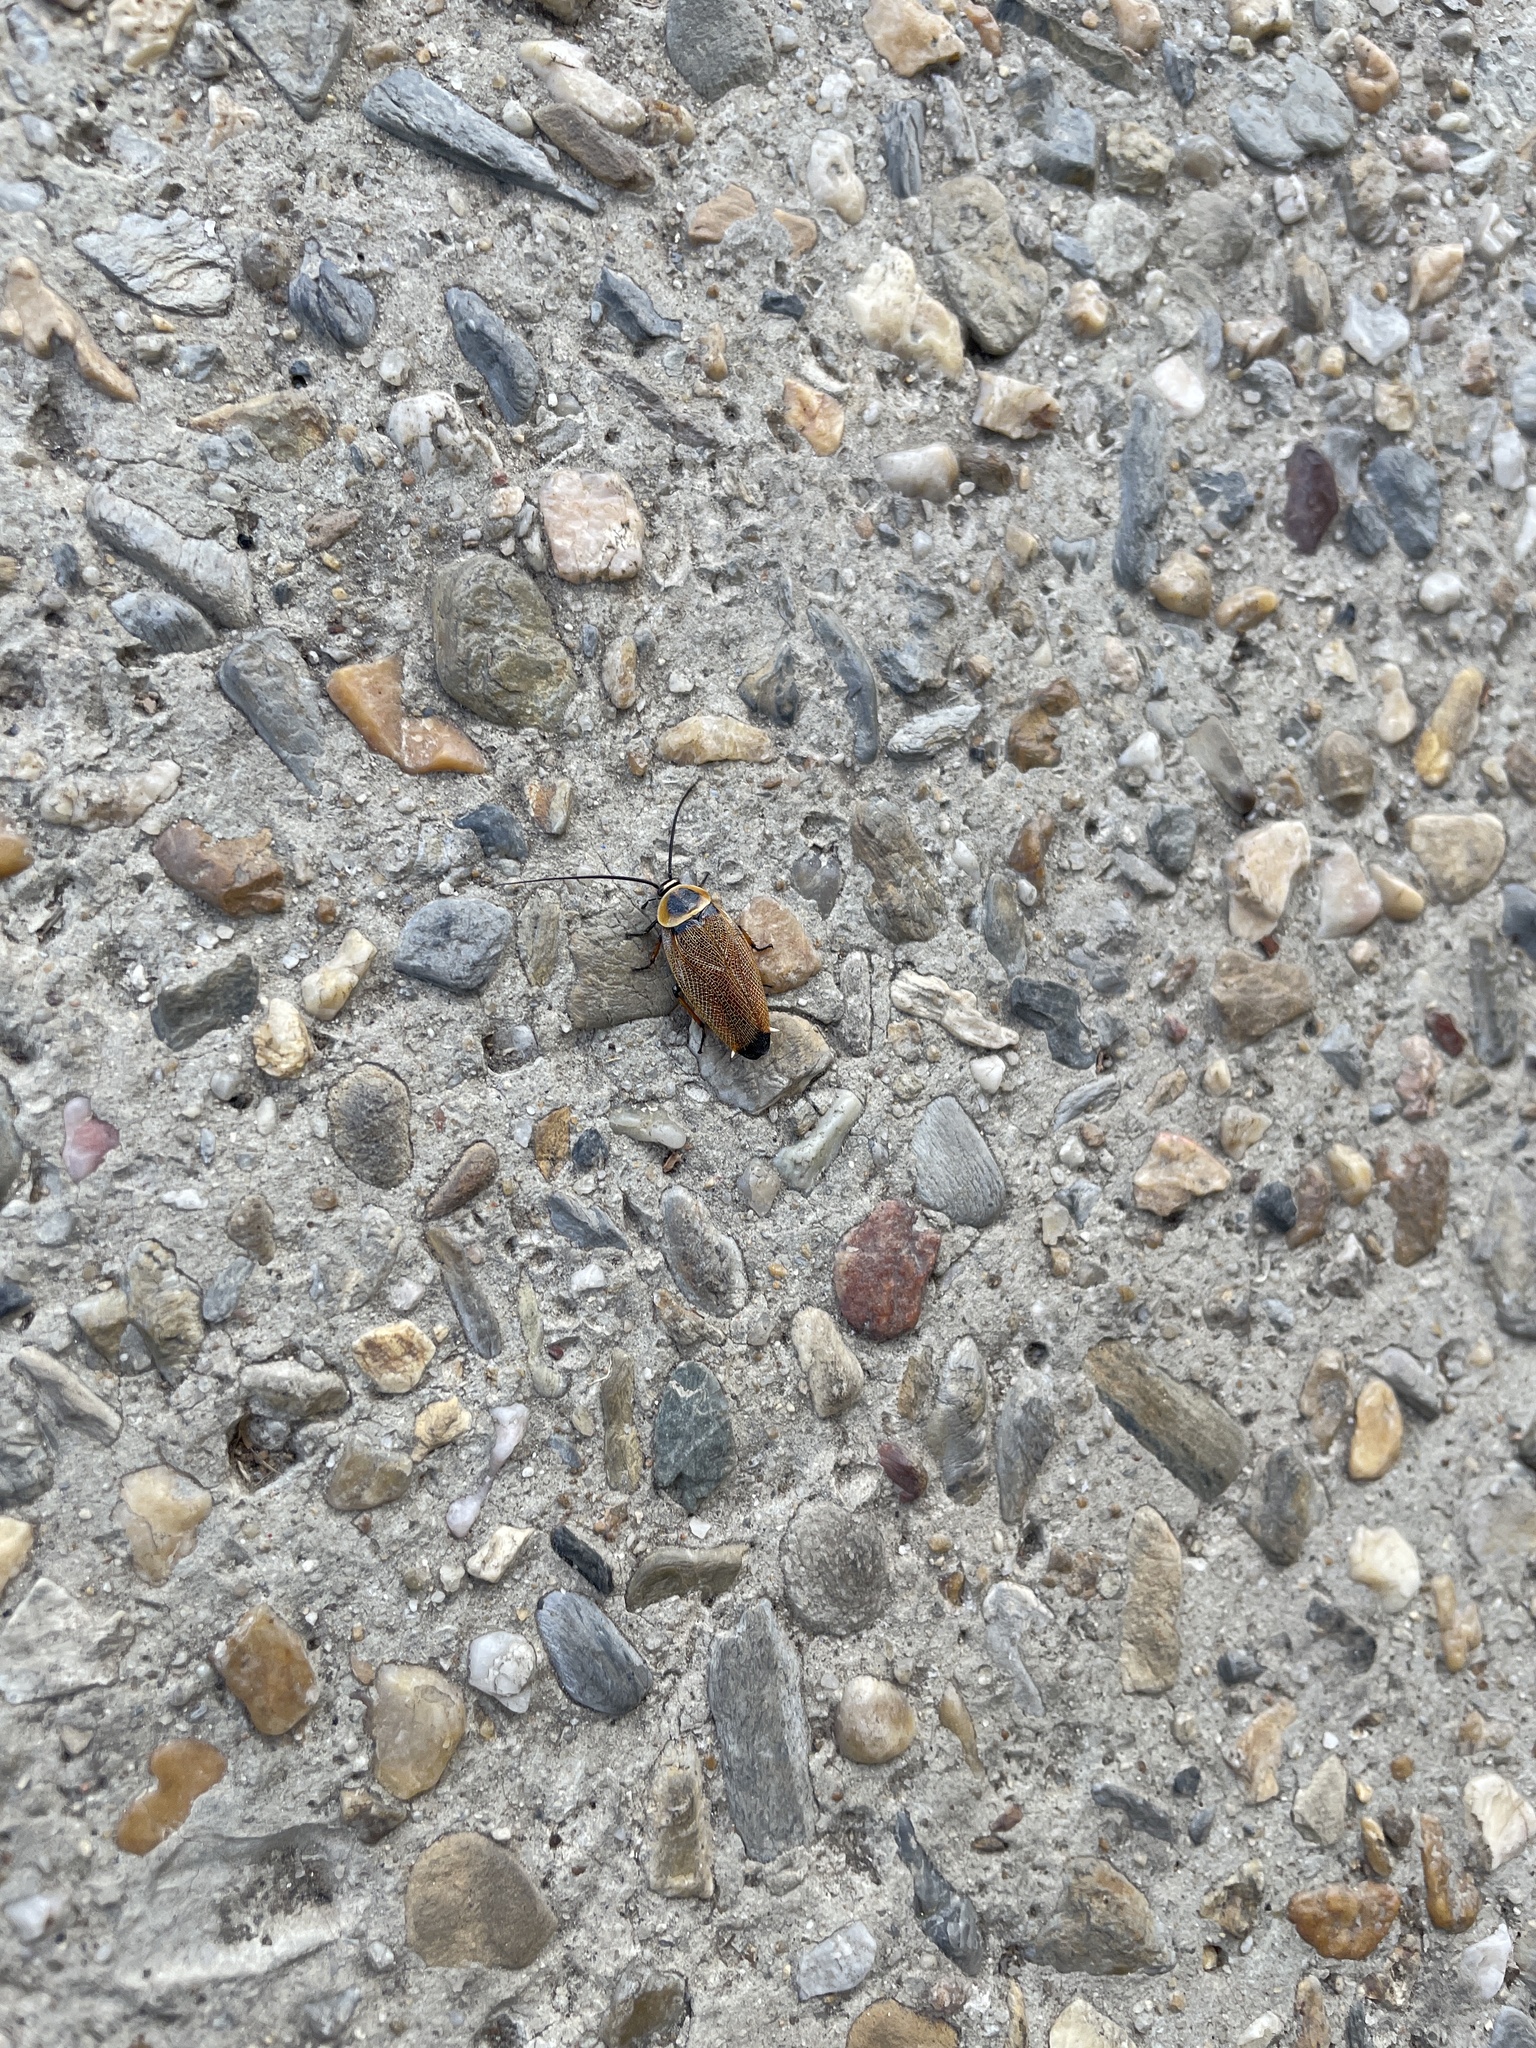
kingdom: Animalia
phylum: Arthropoda
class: Insecta
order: Blattodea
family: Ectobiidae
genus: Ellipsidion
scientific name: Ellipsidion australe
